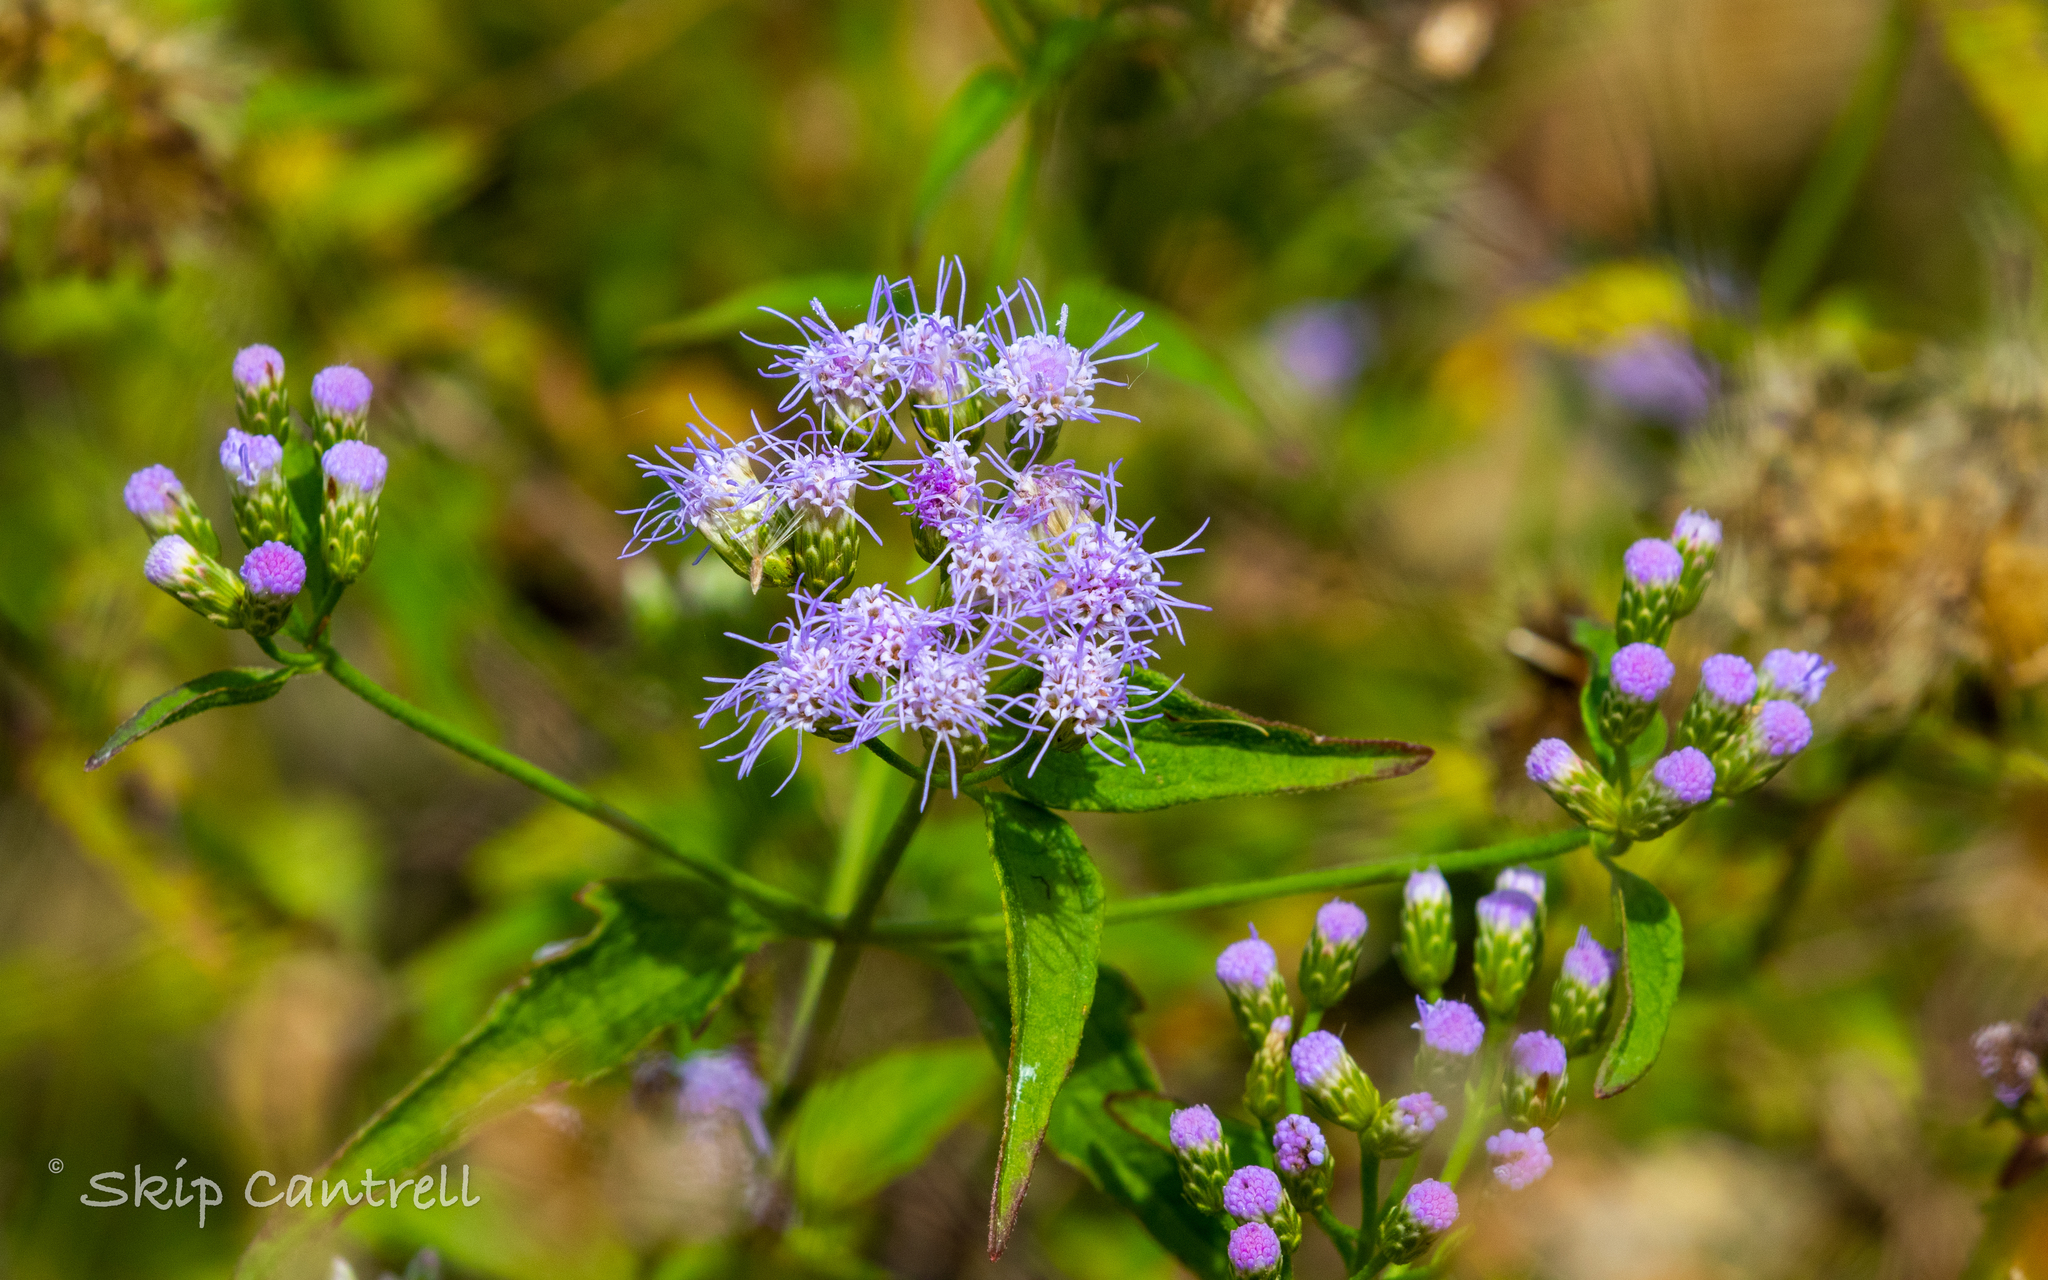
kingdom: Plantae
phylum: Tracheophyta
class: Magnoliopsida
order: Asterales
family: Asteraceae
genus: Chromolaena
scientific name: Chromolaena odorata
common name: Siamweed
